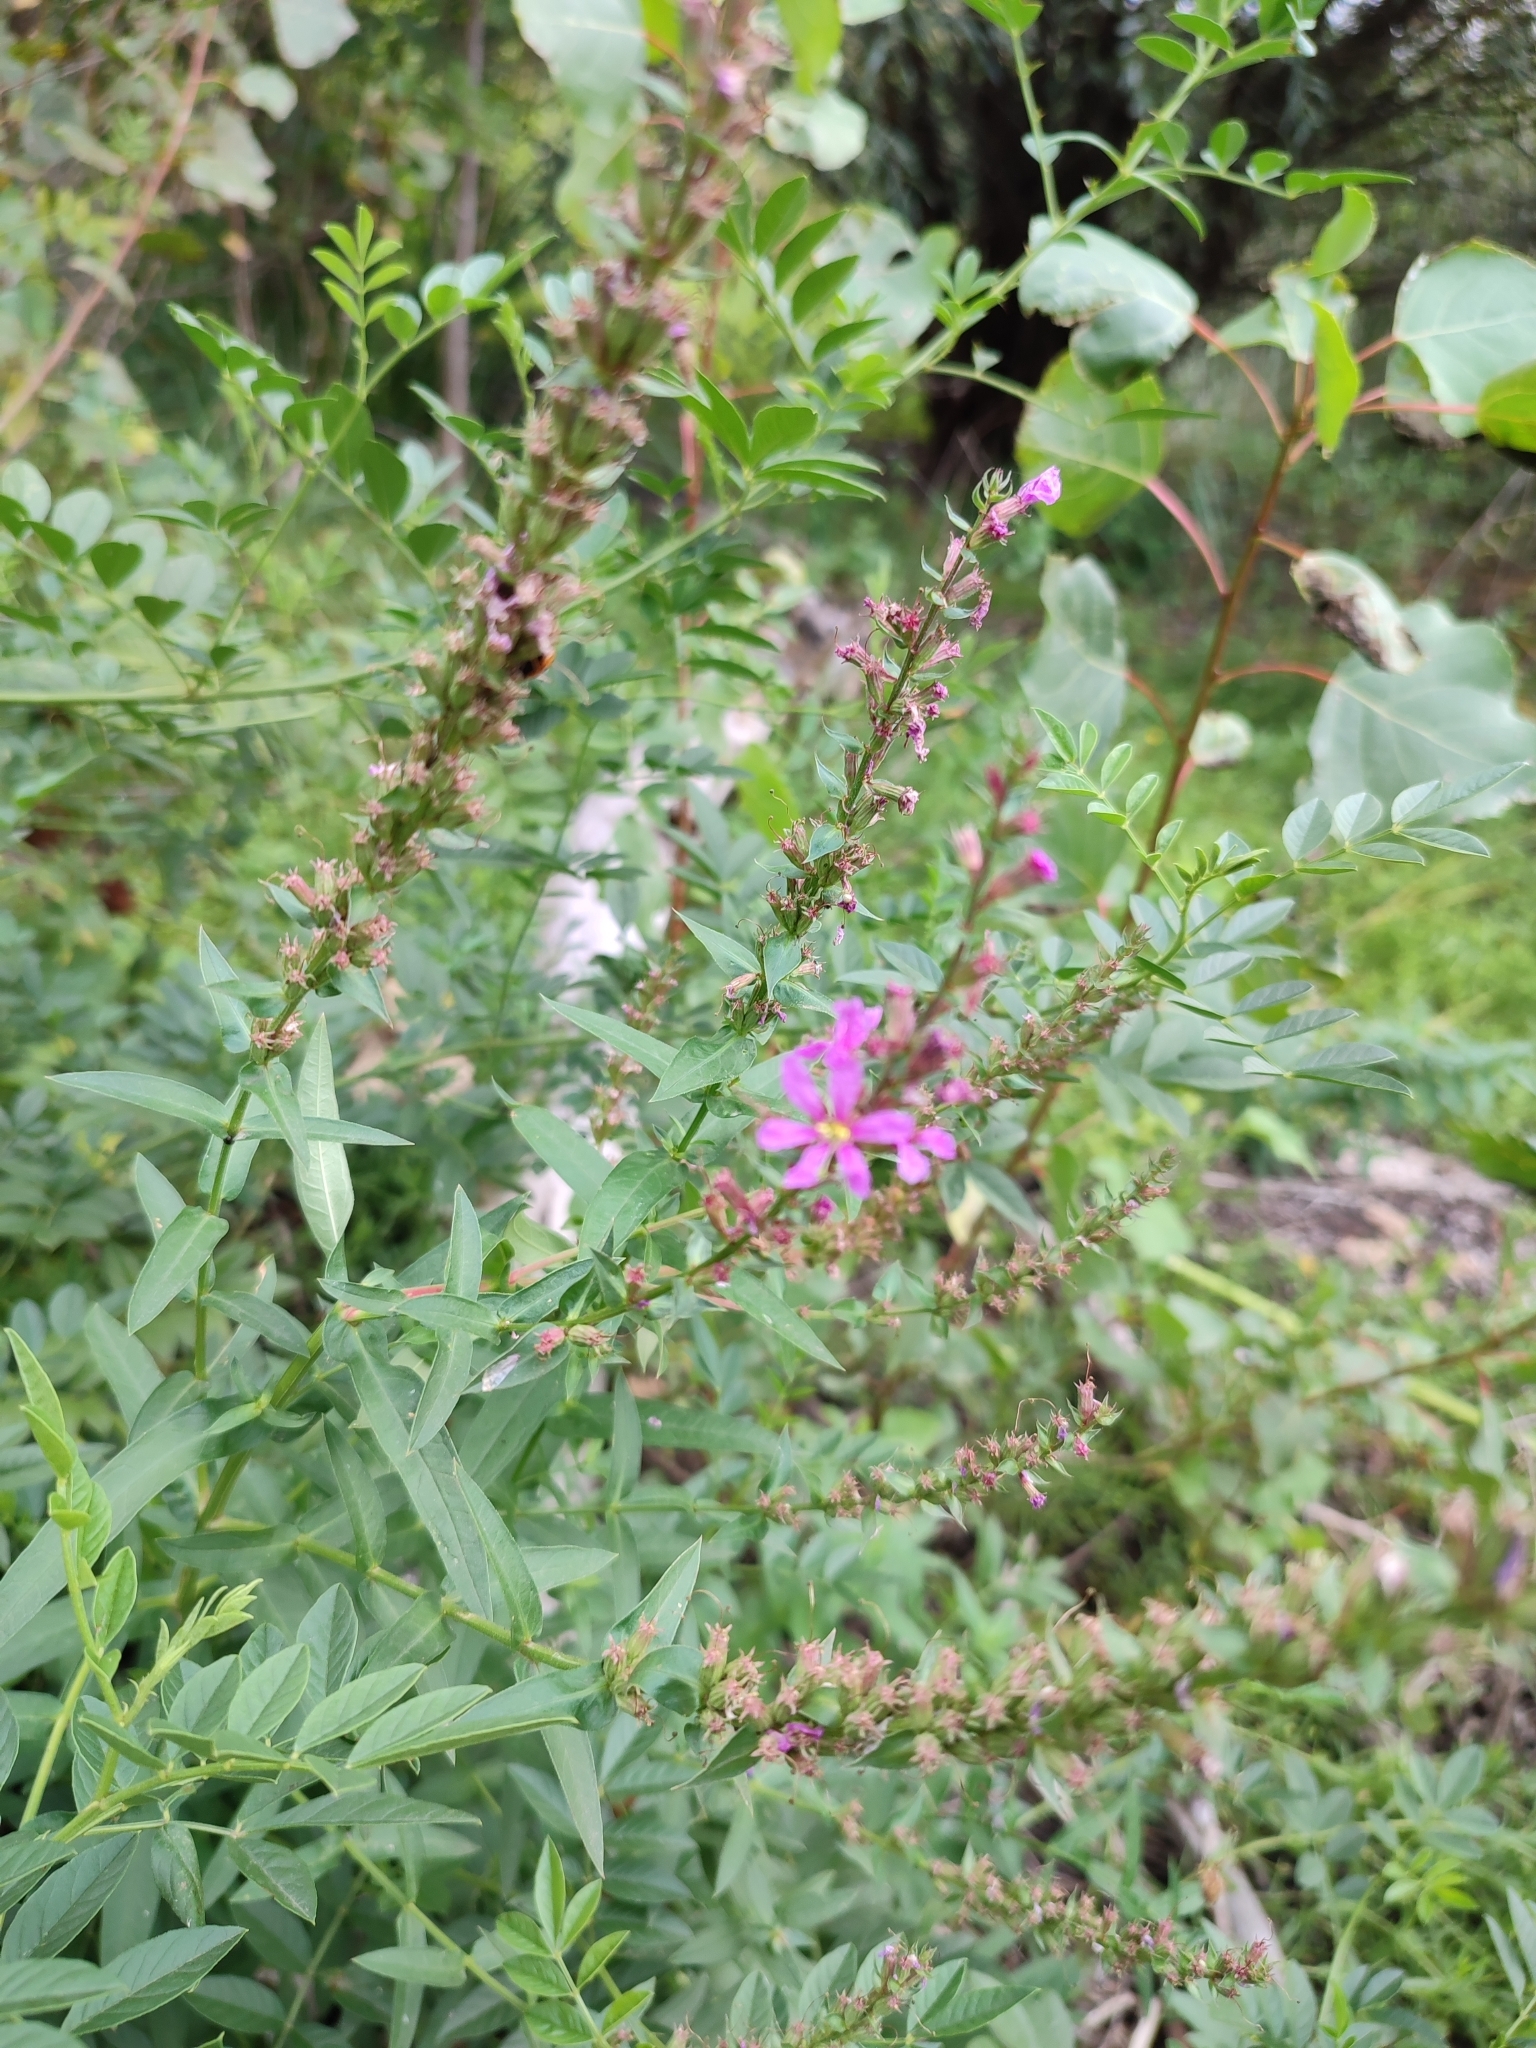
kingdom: Plantae
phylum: Tracheophyta
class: Magnoliopsida
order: Myrtales
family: Lythraceae
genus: Lythrum
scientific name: Lythrum virgatum
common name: European wand loosestrife
